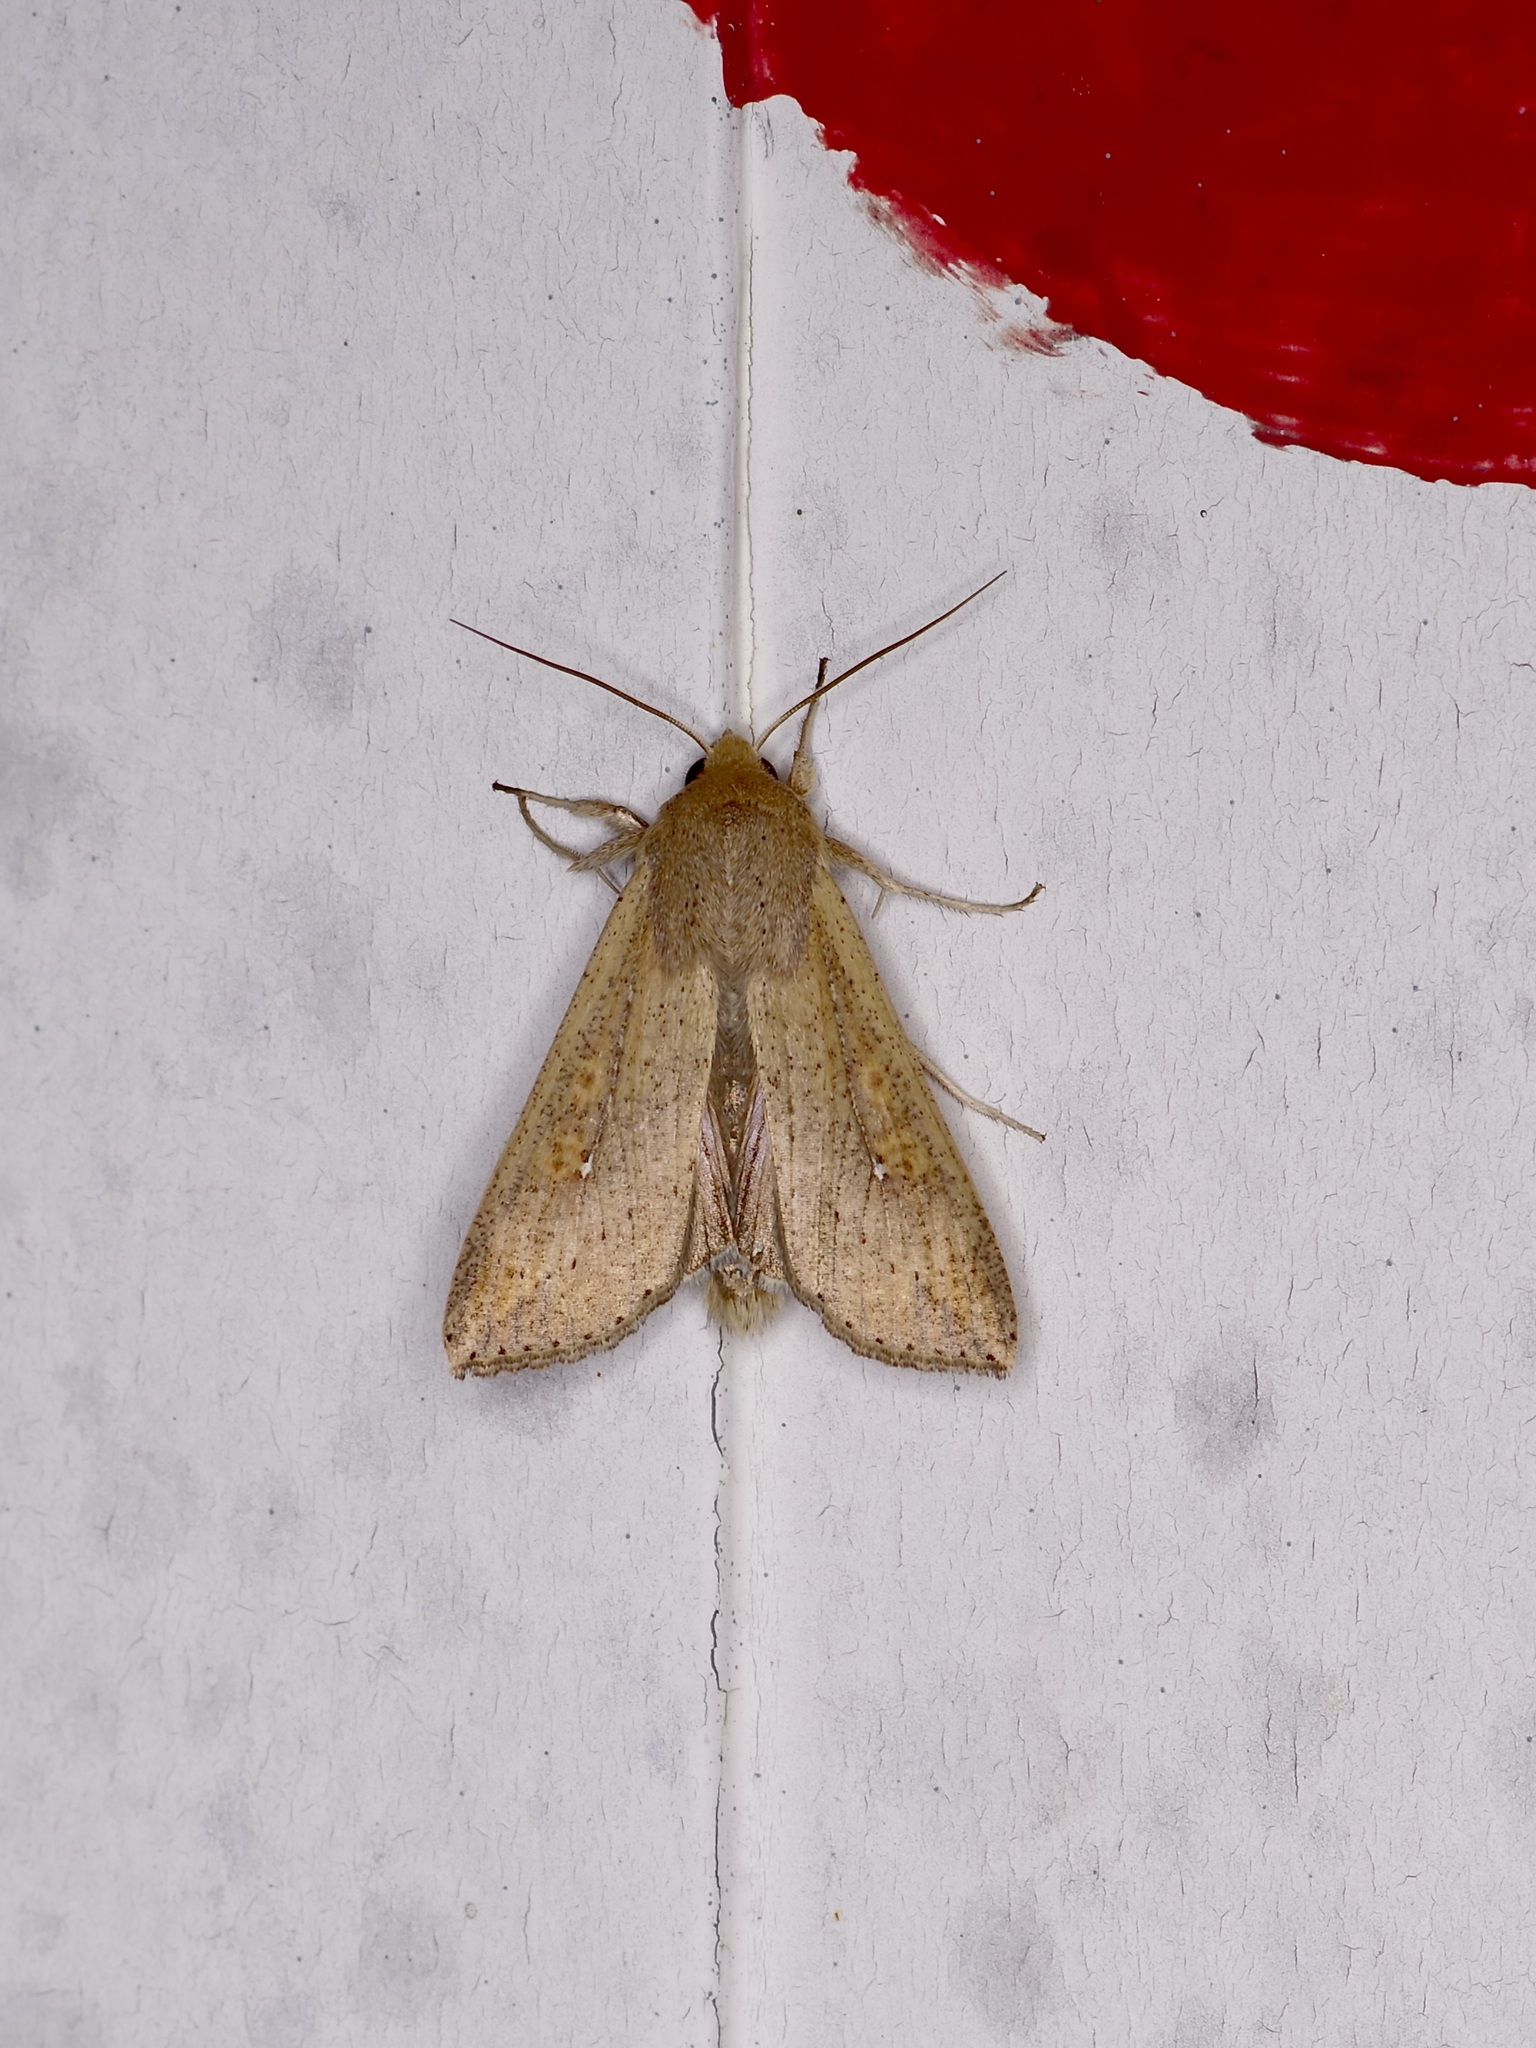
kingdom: Animalia
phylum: Arthropoda
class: Insecta
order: Lepidoptera
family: Noctuidae
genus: Mythimna
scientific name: Mythimna unipuncta
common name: White-speck
